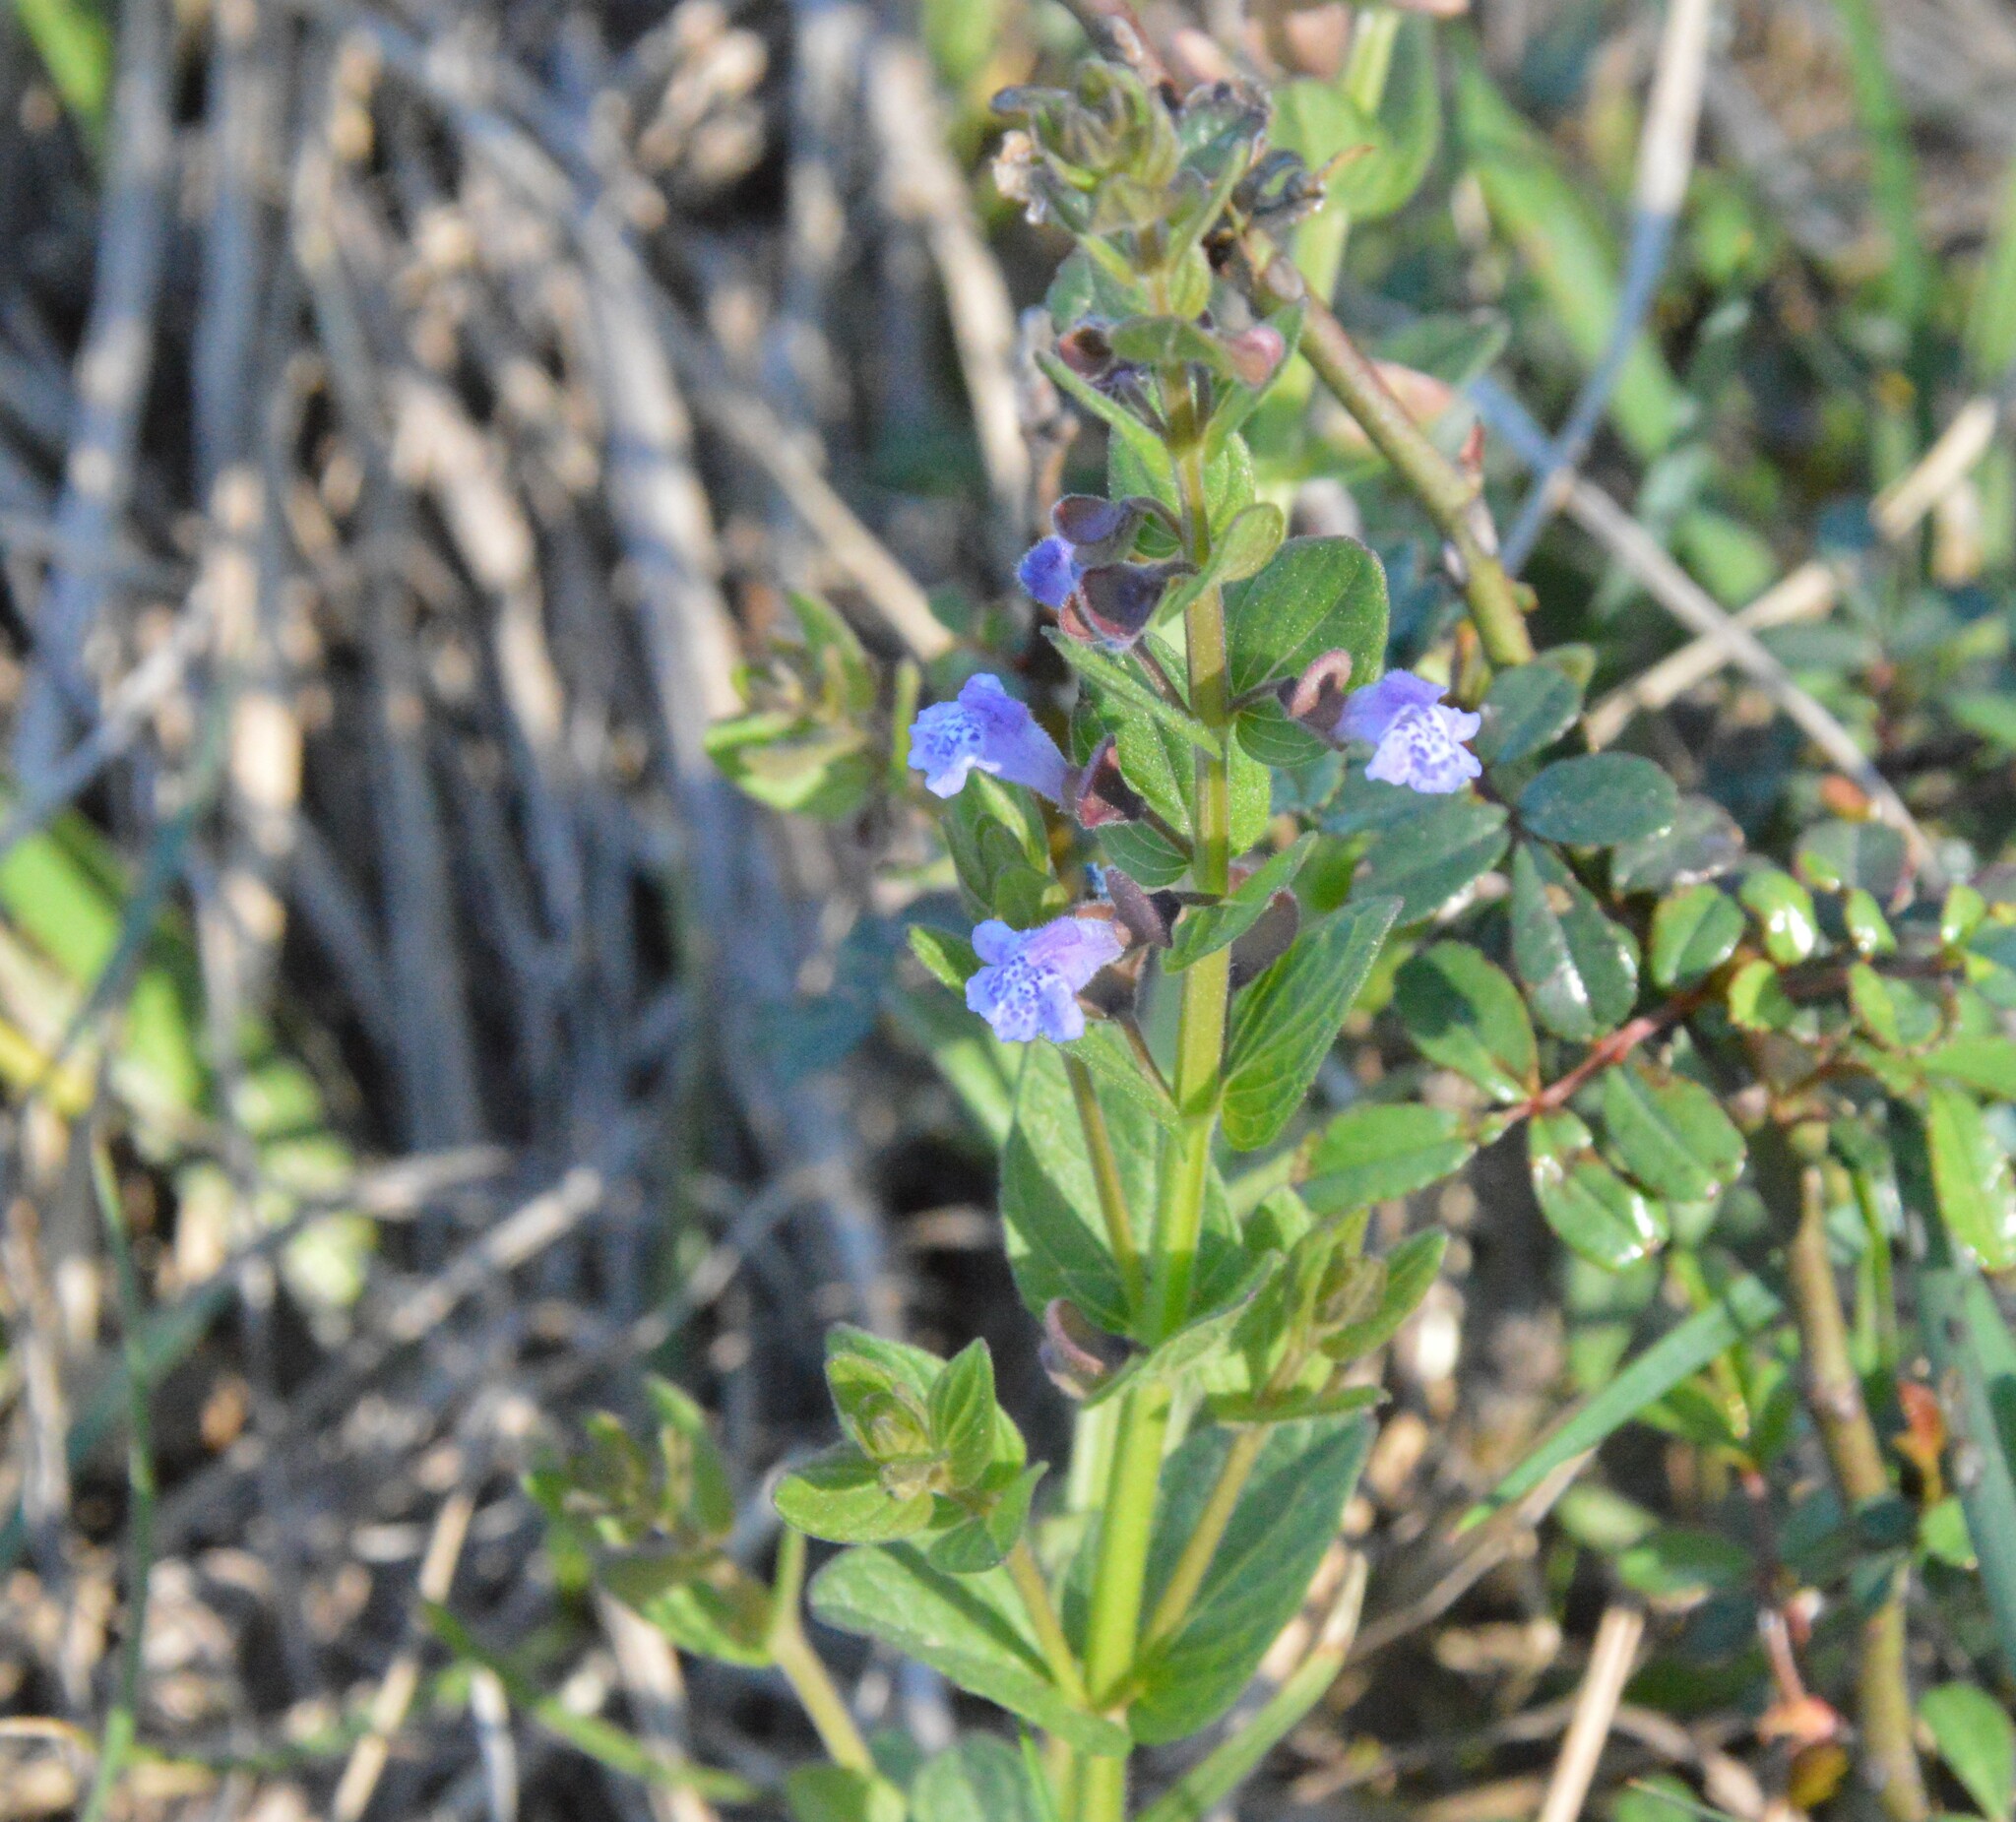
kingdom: Plantae
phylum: Tracheophyta
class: Magnoliopsida
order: Lamiales
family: Lamiaceae
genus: Scutellaria
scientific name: Scutellaria parvula
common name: Little scullcap
